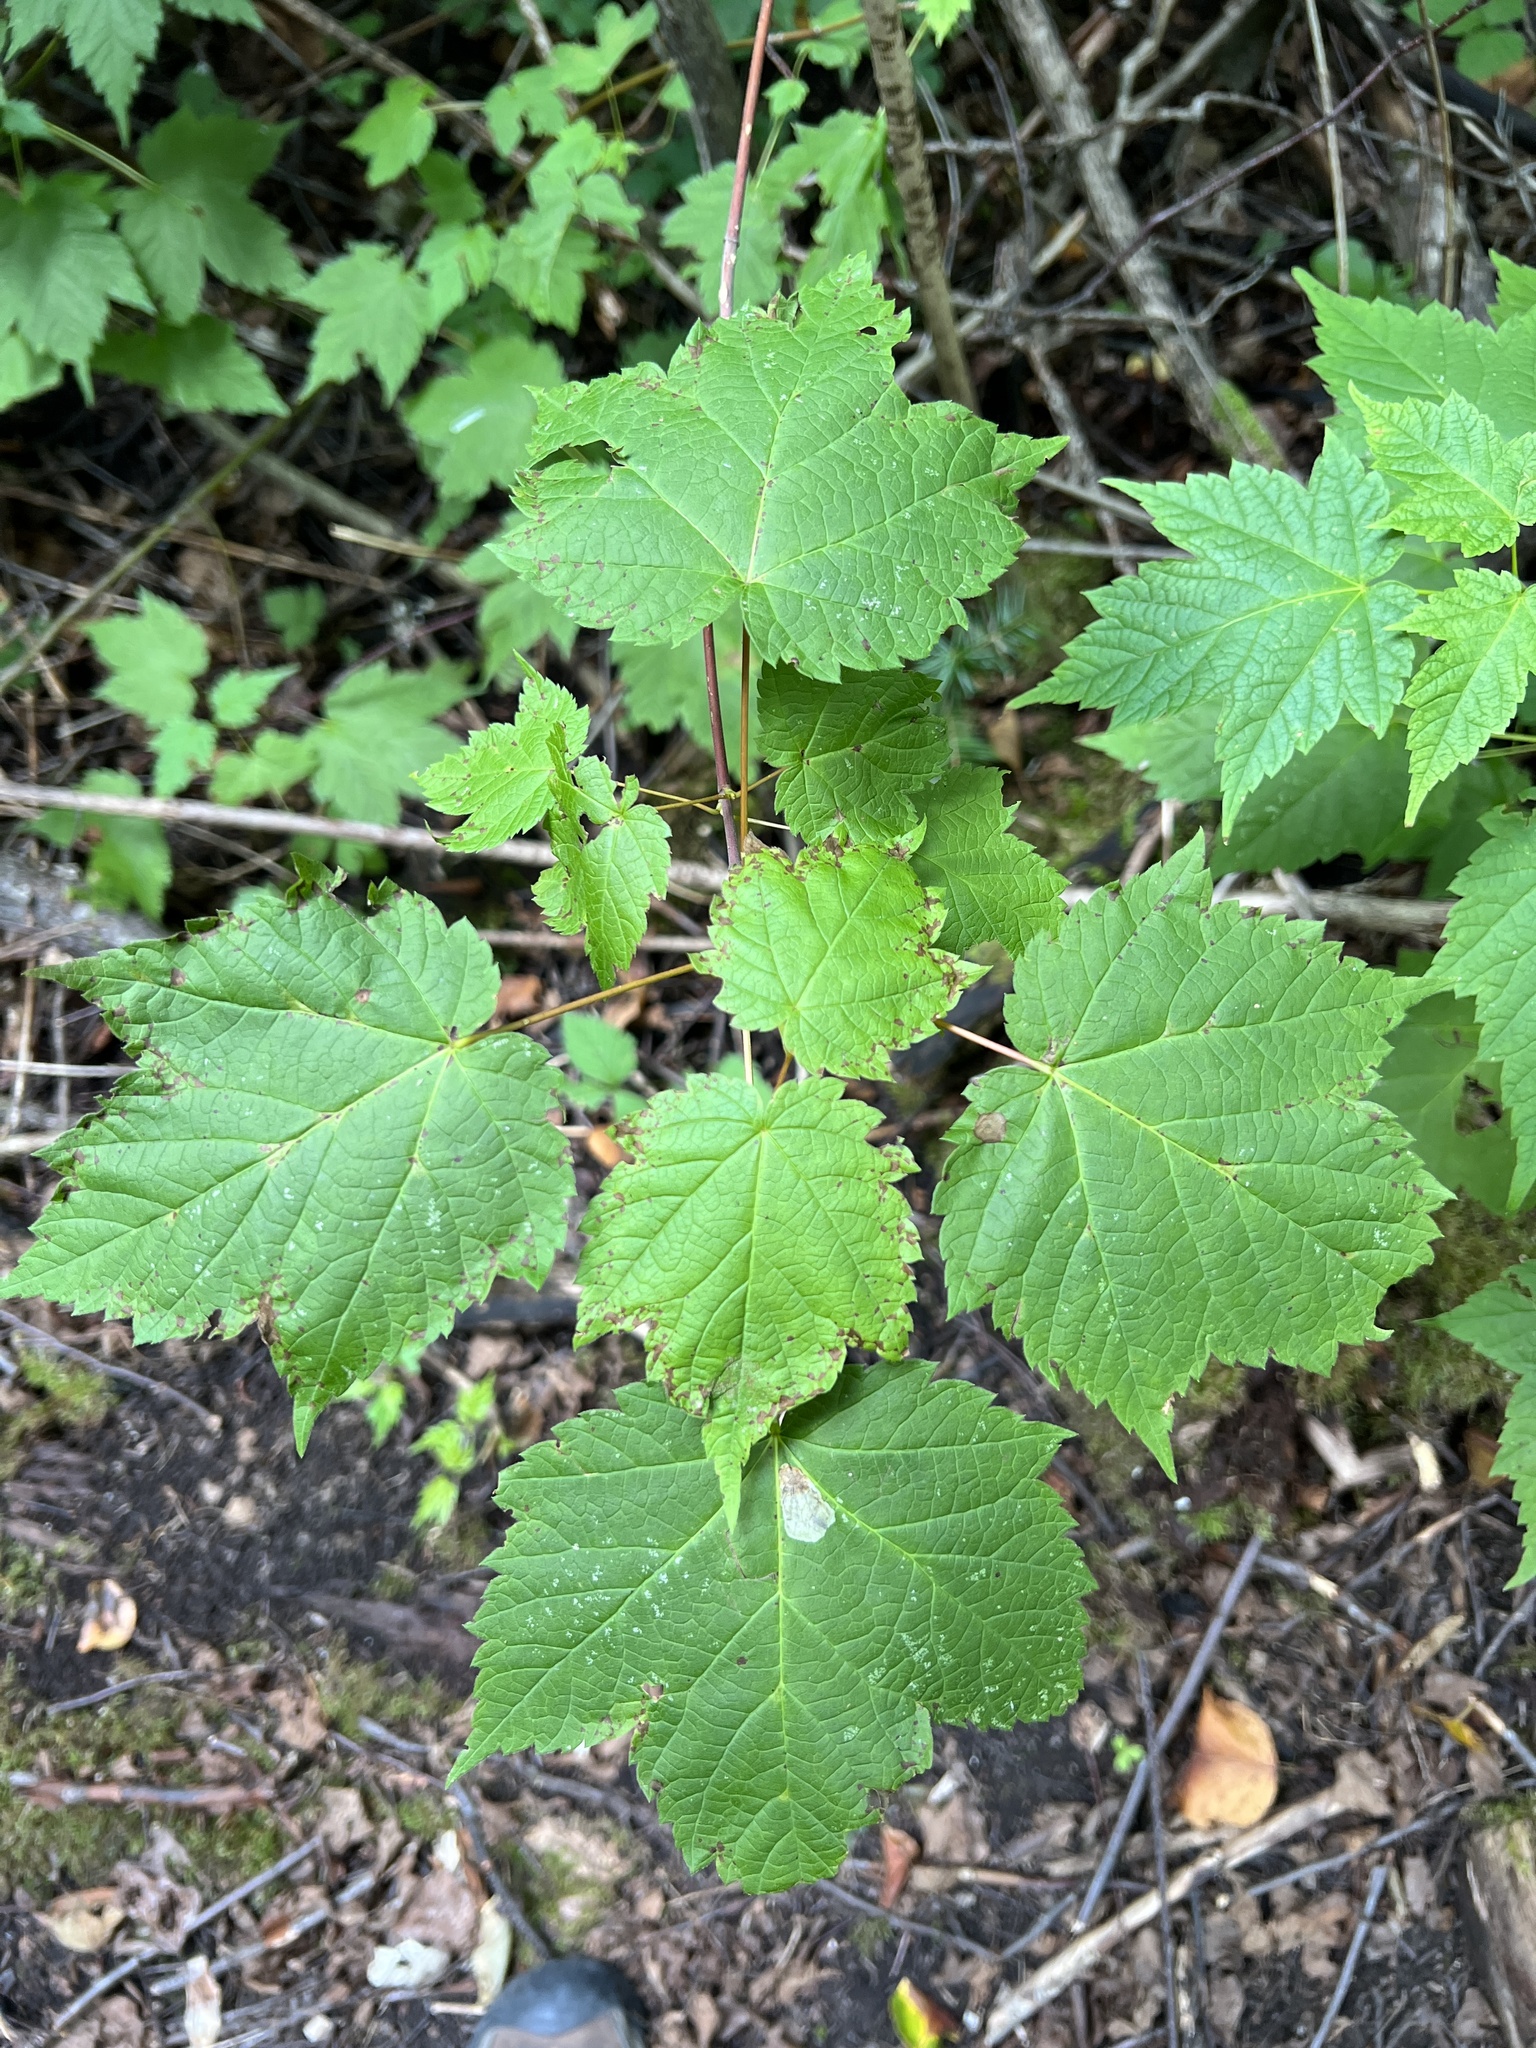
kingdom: Plantae
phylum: Tracheophyta
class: Magnoliopsida
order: Sapindales
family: Sapindaceae
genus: Acer
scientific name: Acer spicatum
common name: Mountain maple
